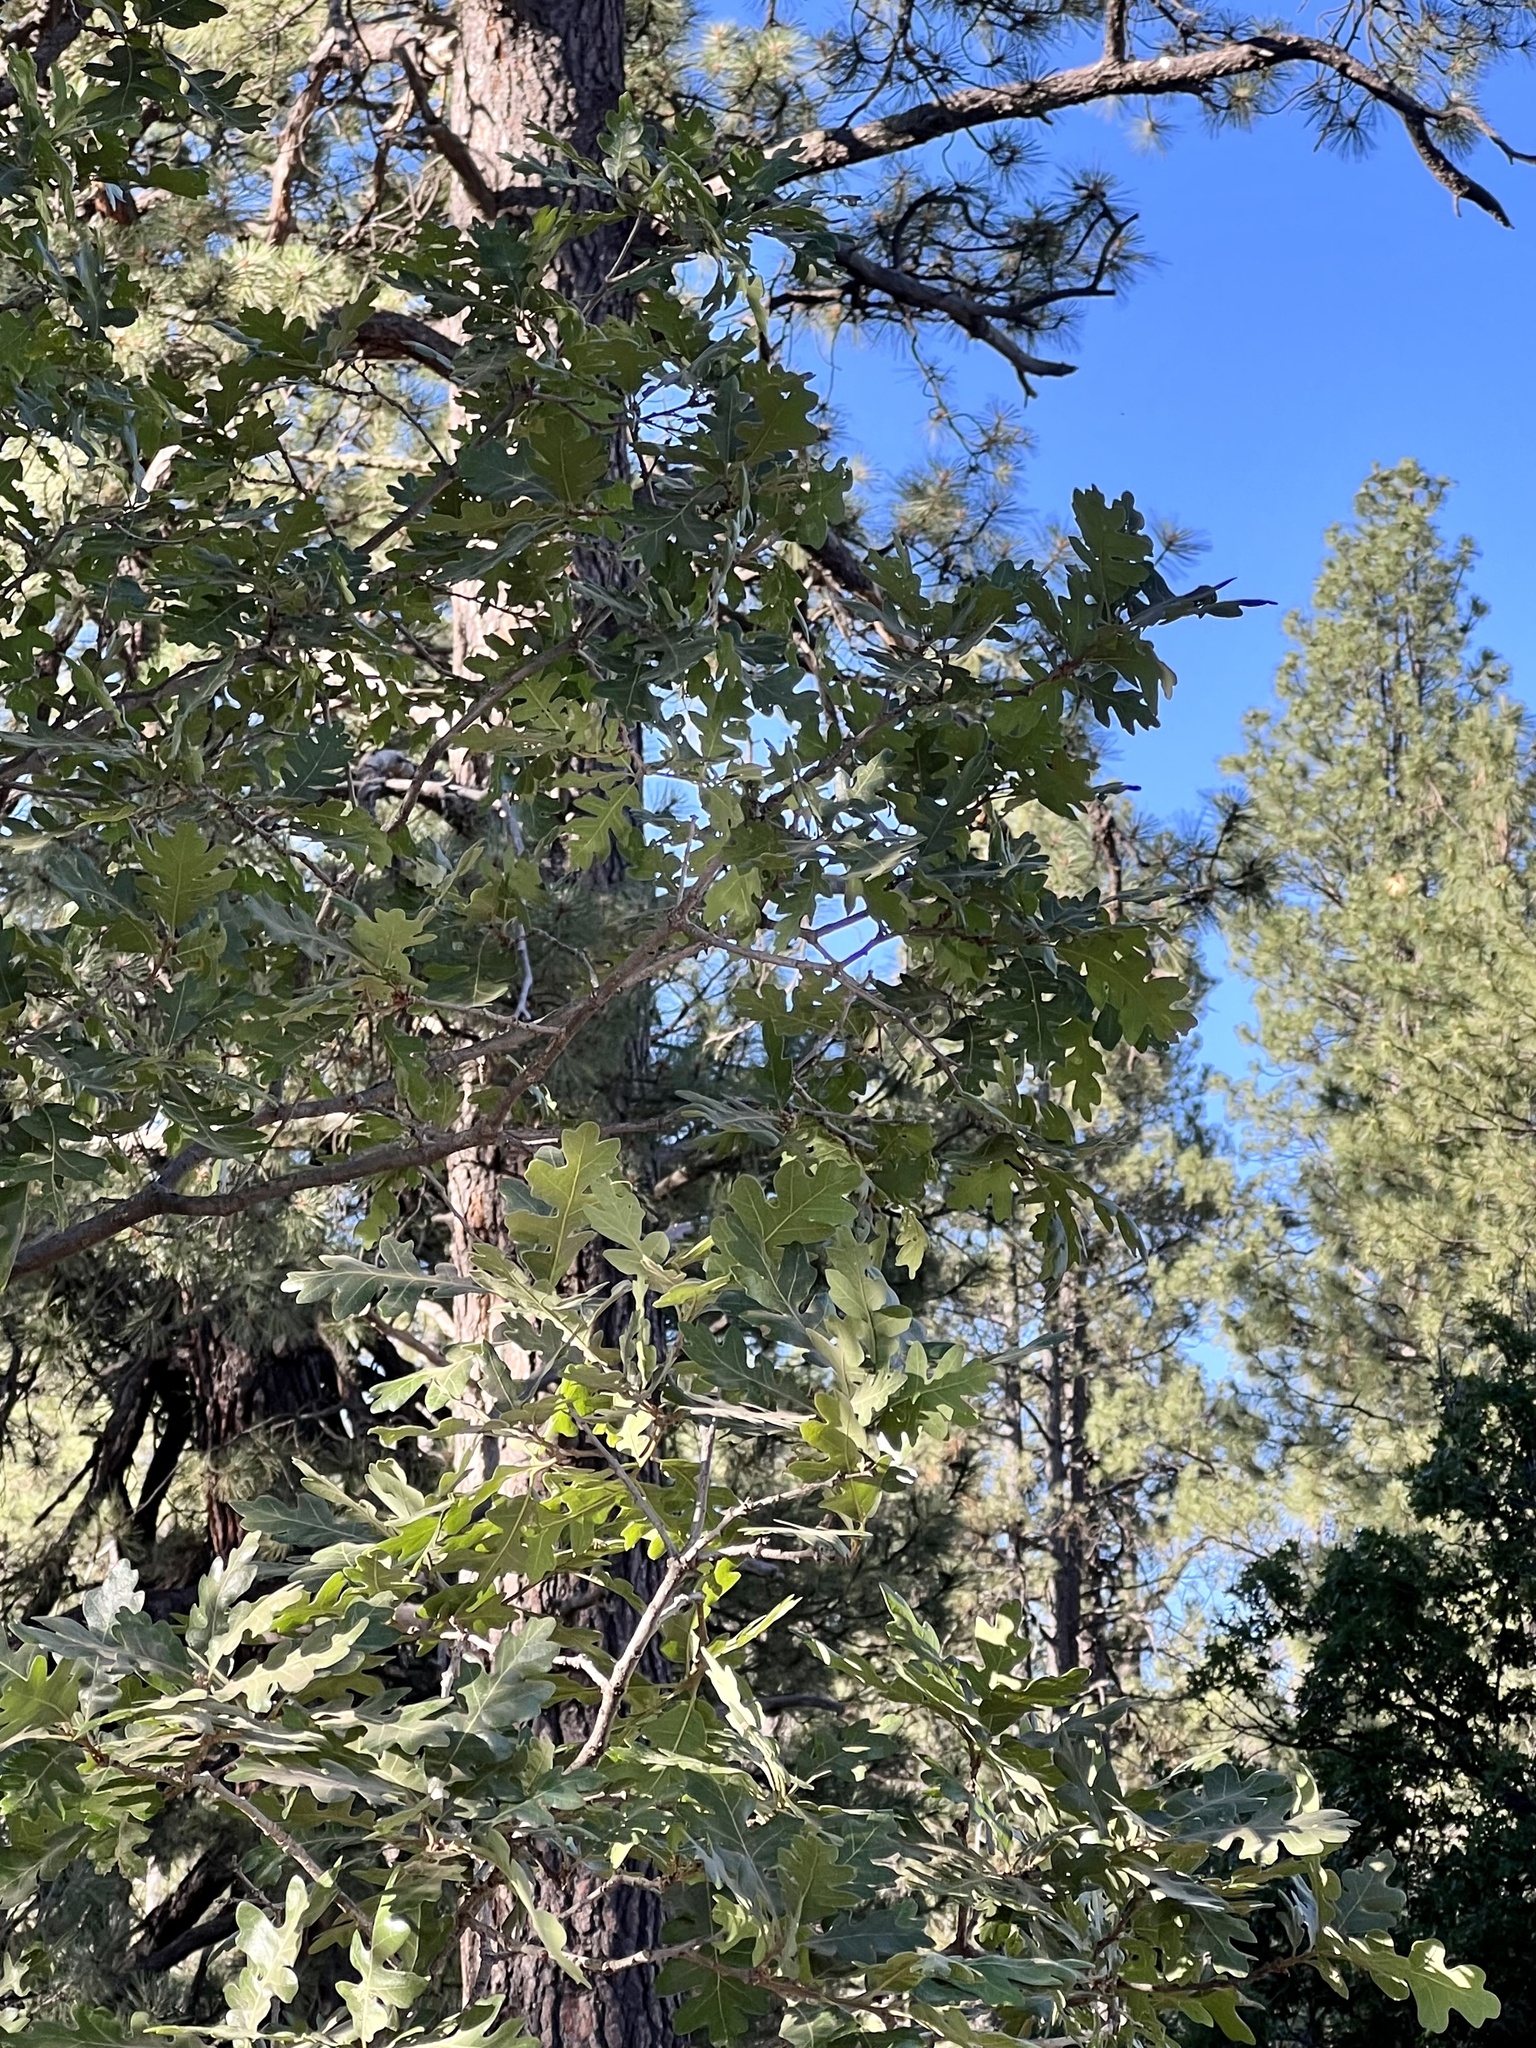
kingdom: Plantae
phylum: Tracheophyta
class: Magnoliopsida
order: Fagales
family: Fagaceae
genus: Quercus
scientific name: Quercus gambelii
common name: Gambel oak
